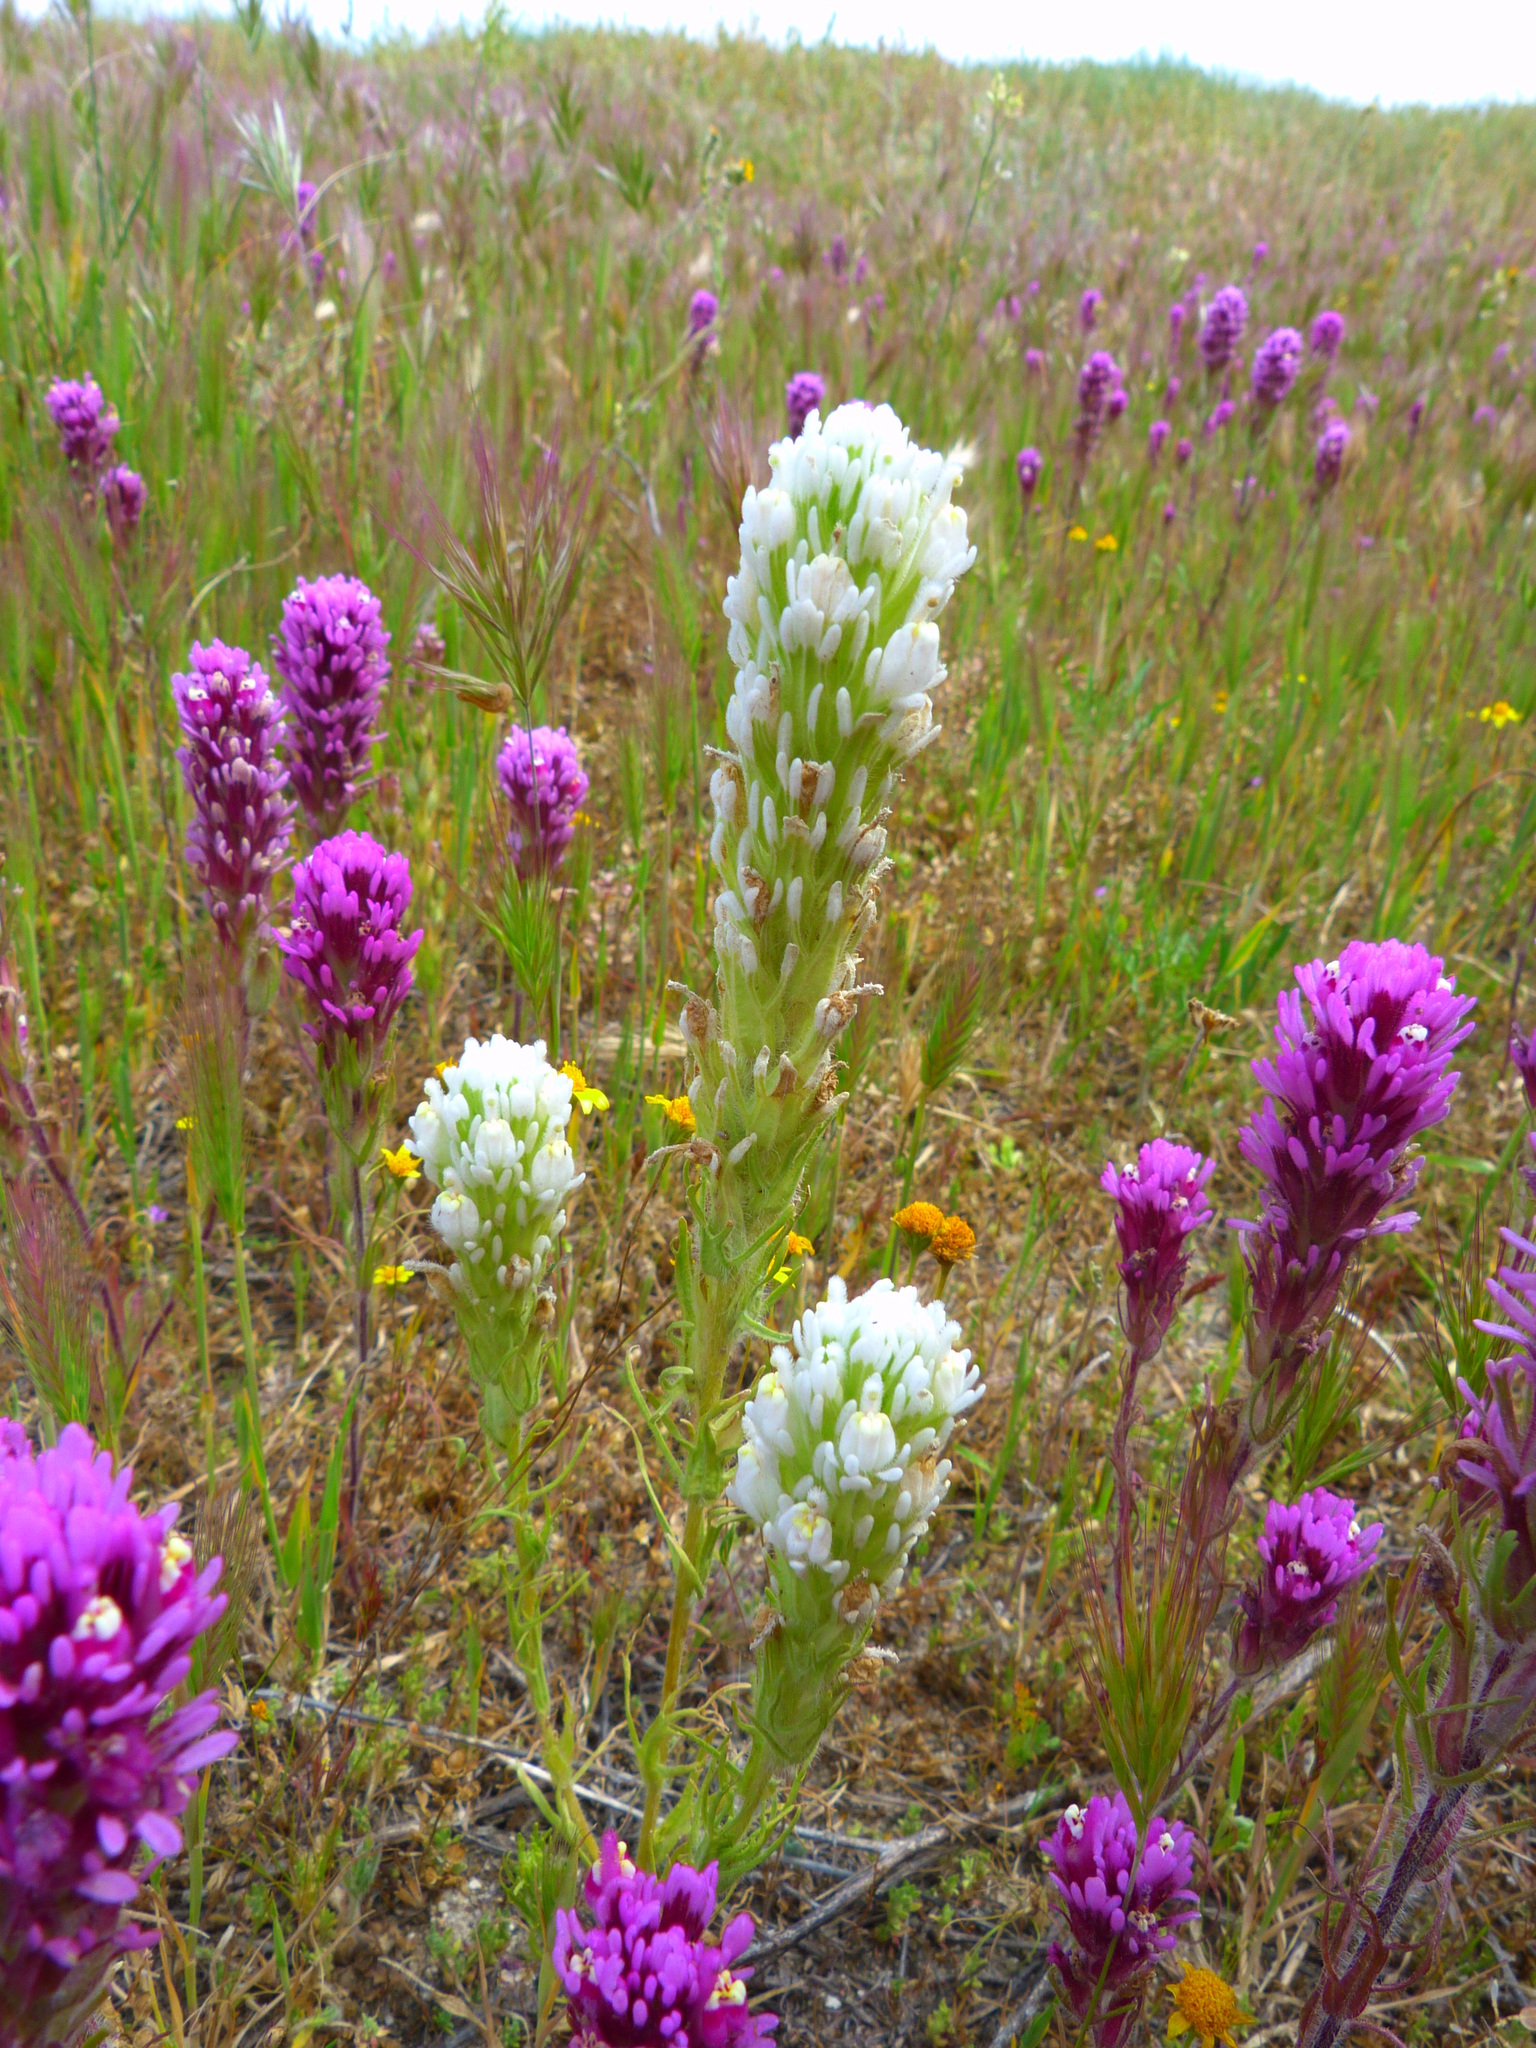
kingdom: Plantae
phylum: Tracheophyta
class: Magnoliopsida
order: Lamiales
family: Orobanchaceae
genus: Castilleja
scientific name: Castilleja exserta
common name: Purple owl-clover
